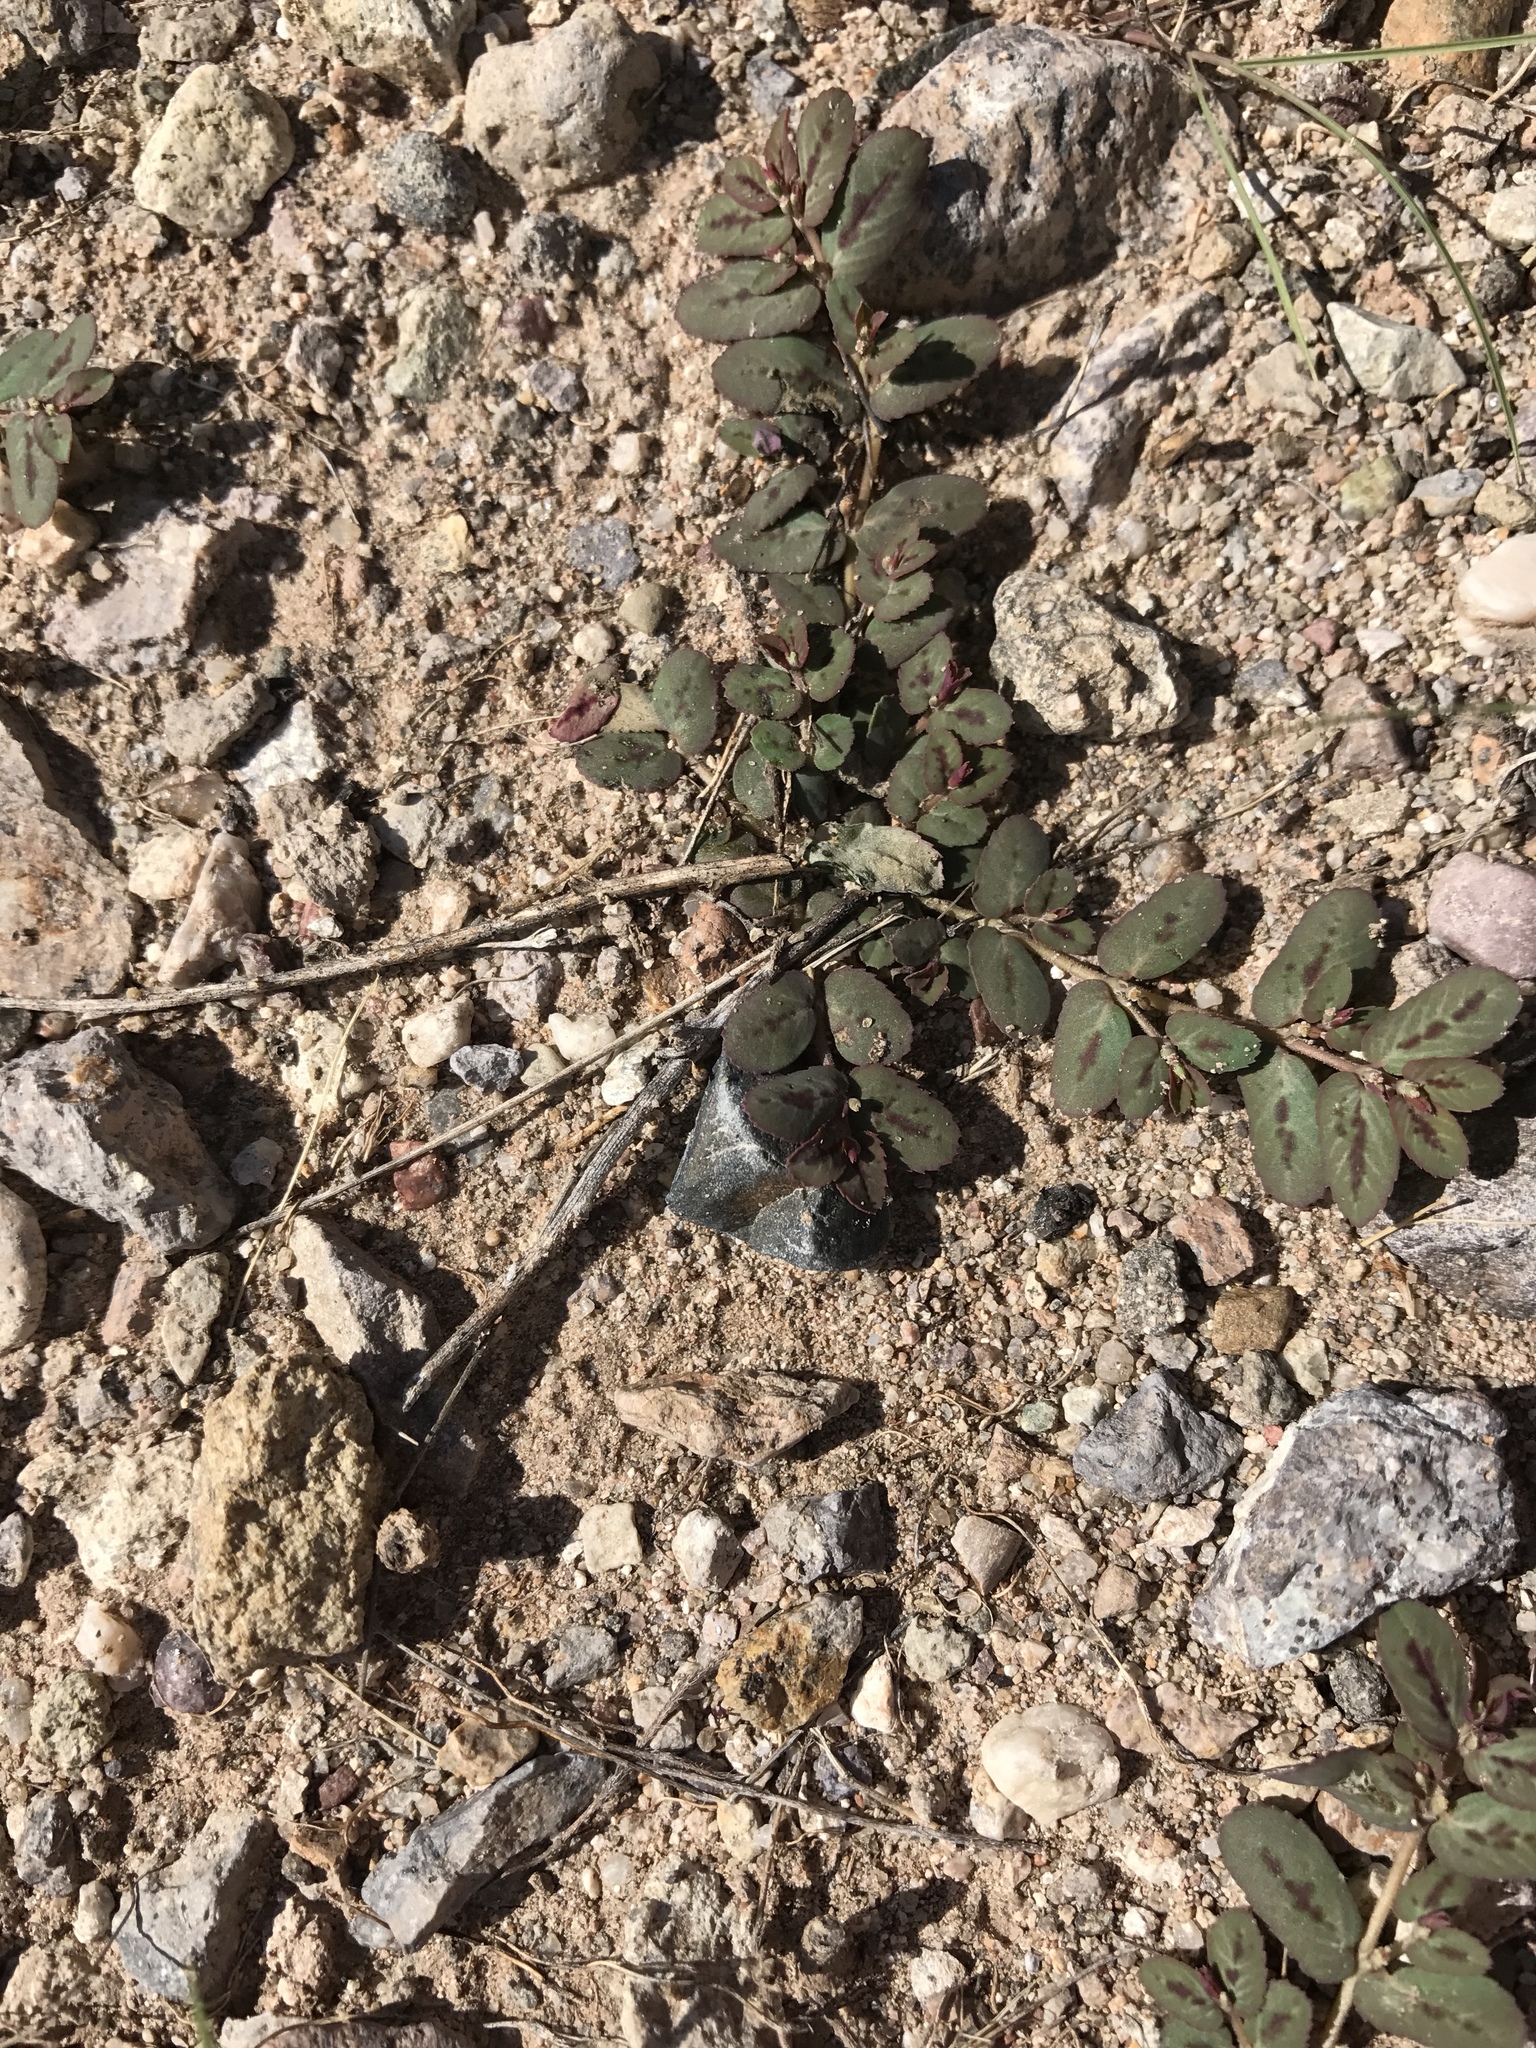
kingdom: Plantae
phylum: Tracheophyta
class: Magnoliopsida
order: Malpighiales
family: Euphorbiaceae
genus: Euphorbia
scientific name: Euphorbia abramsiana
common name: Abram's spurge
